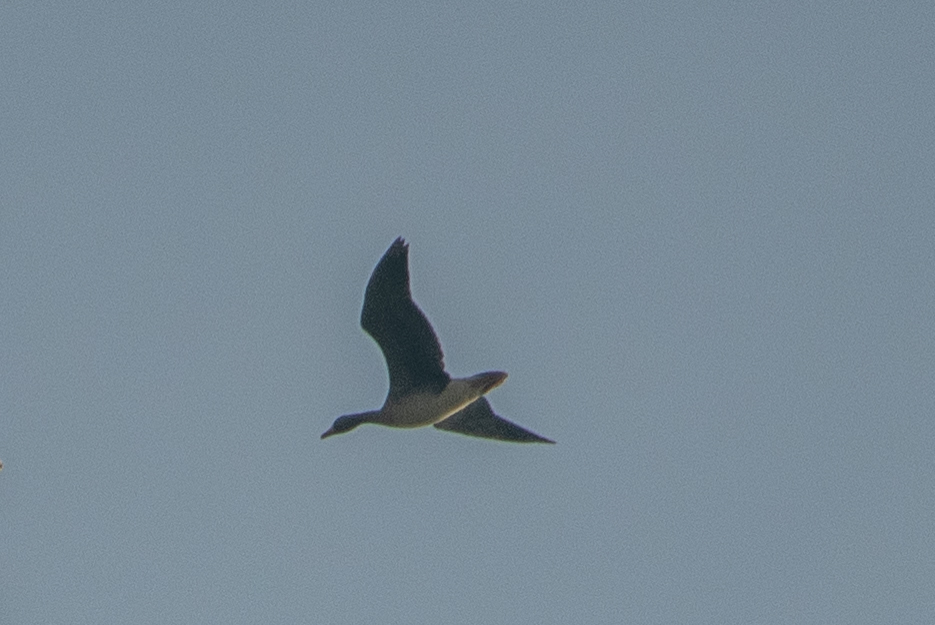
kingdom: Animalia
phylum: Chordata
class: Aves
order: Anseriformes
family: Anatidae
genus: Anser
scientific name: Anser albifrons
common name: Greater white-fronted goose
